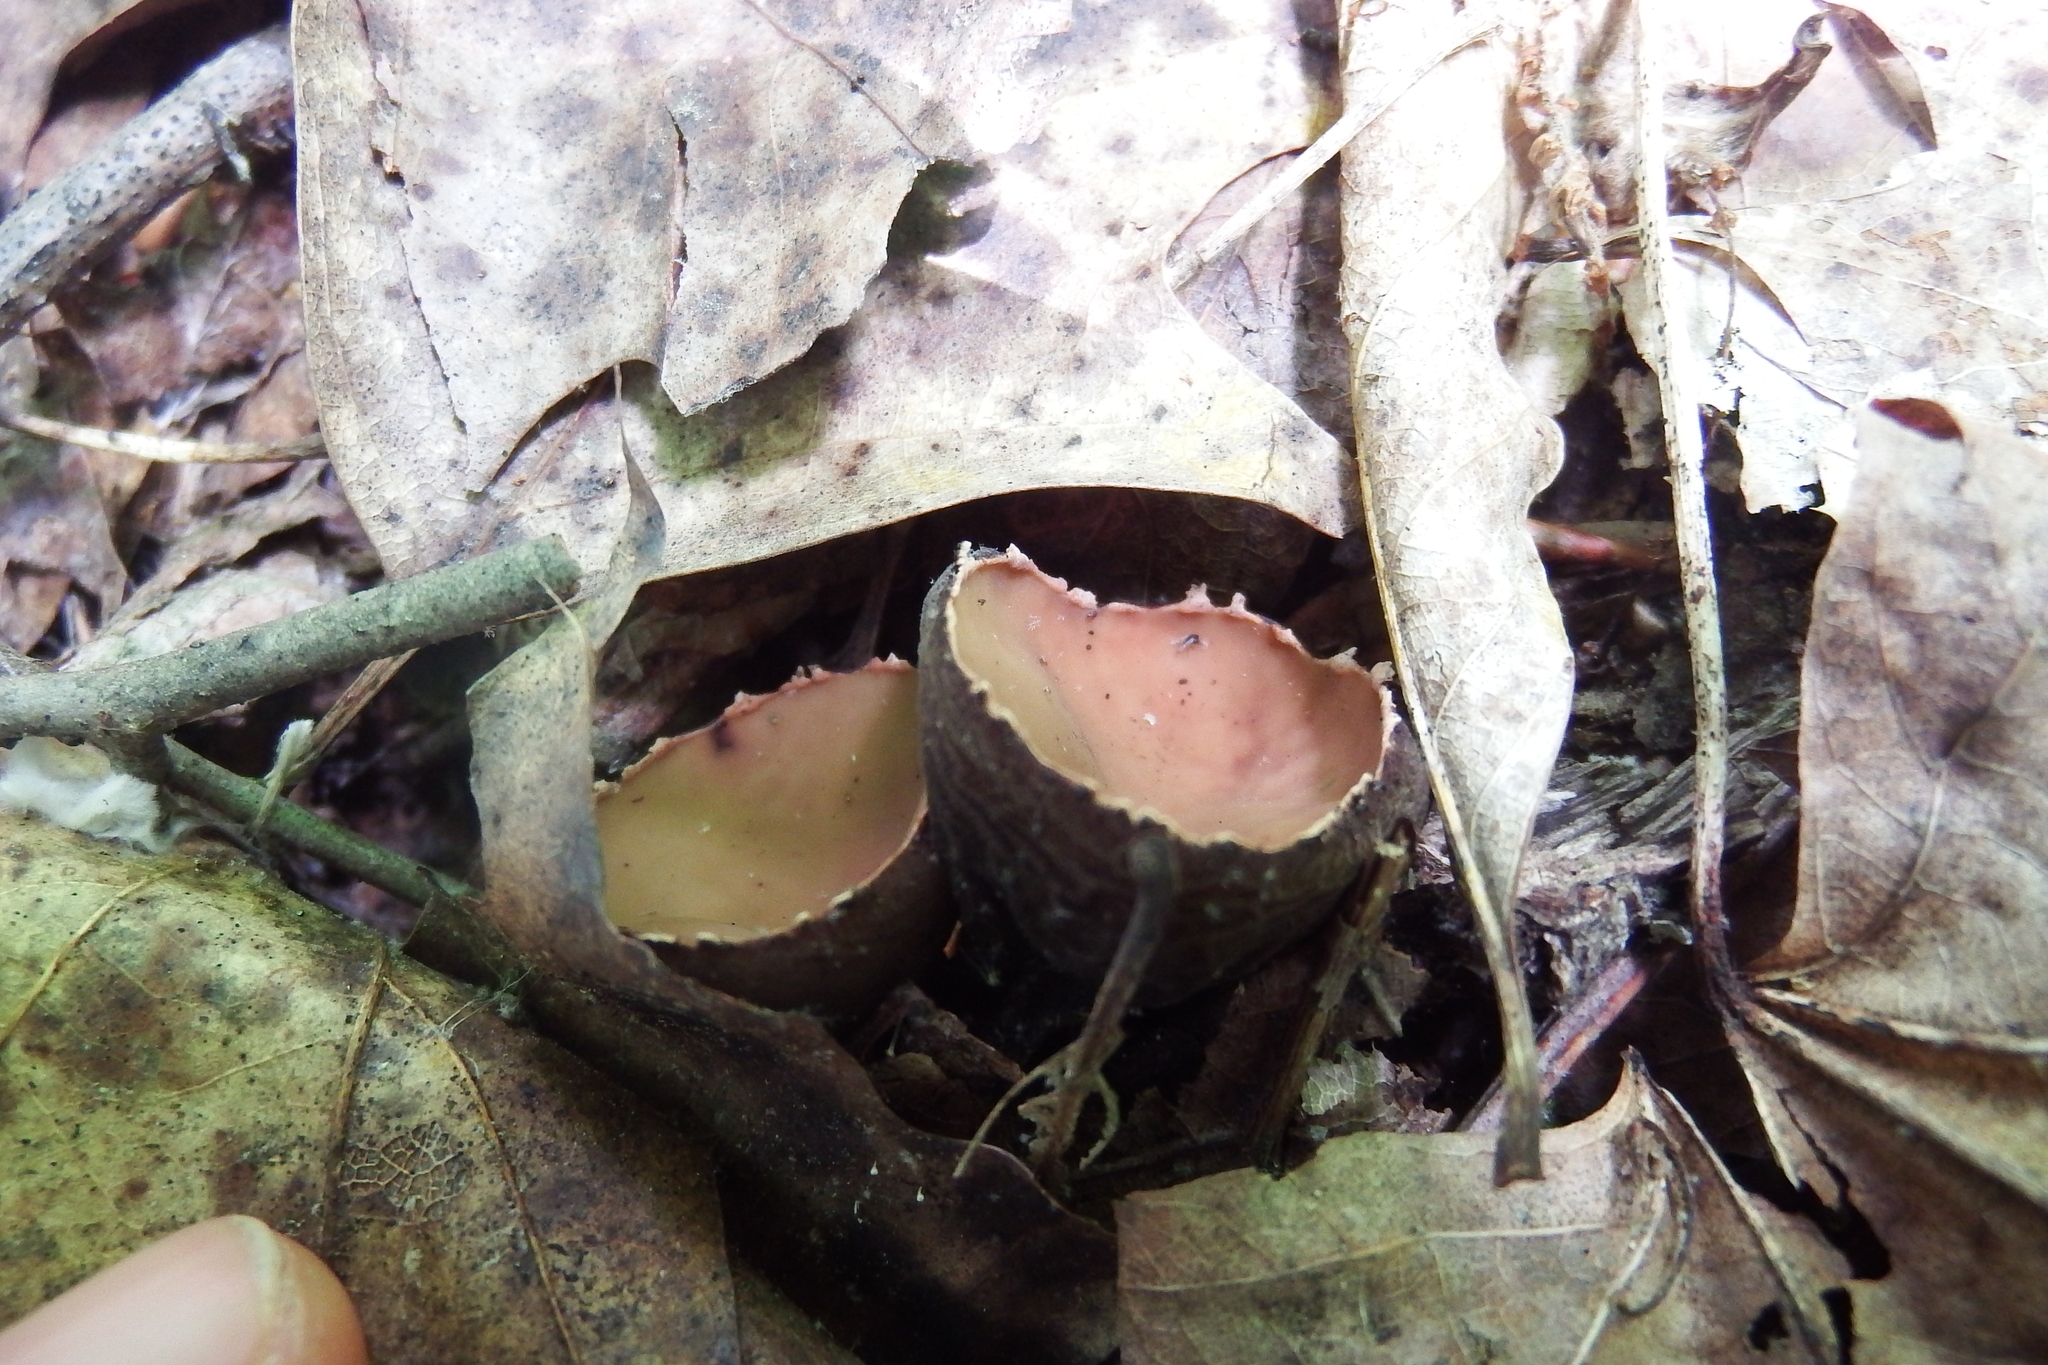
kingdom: Fungi
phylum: Ascomycota
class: Pezizomycetes
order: Pezizales
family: Sarcosomataceae
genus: Galiella
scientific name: Galiella rufa
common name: Hairy rubber cup
